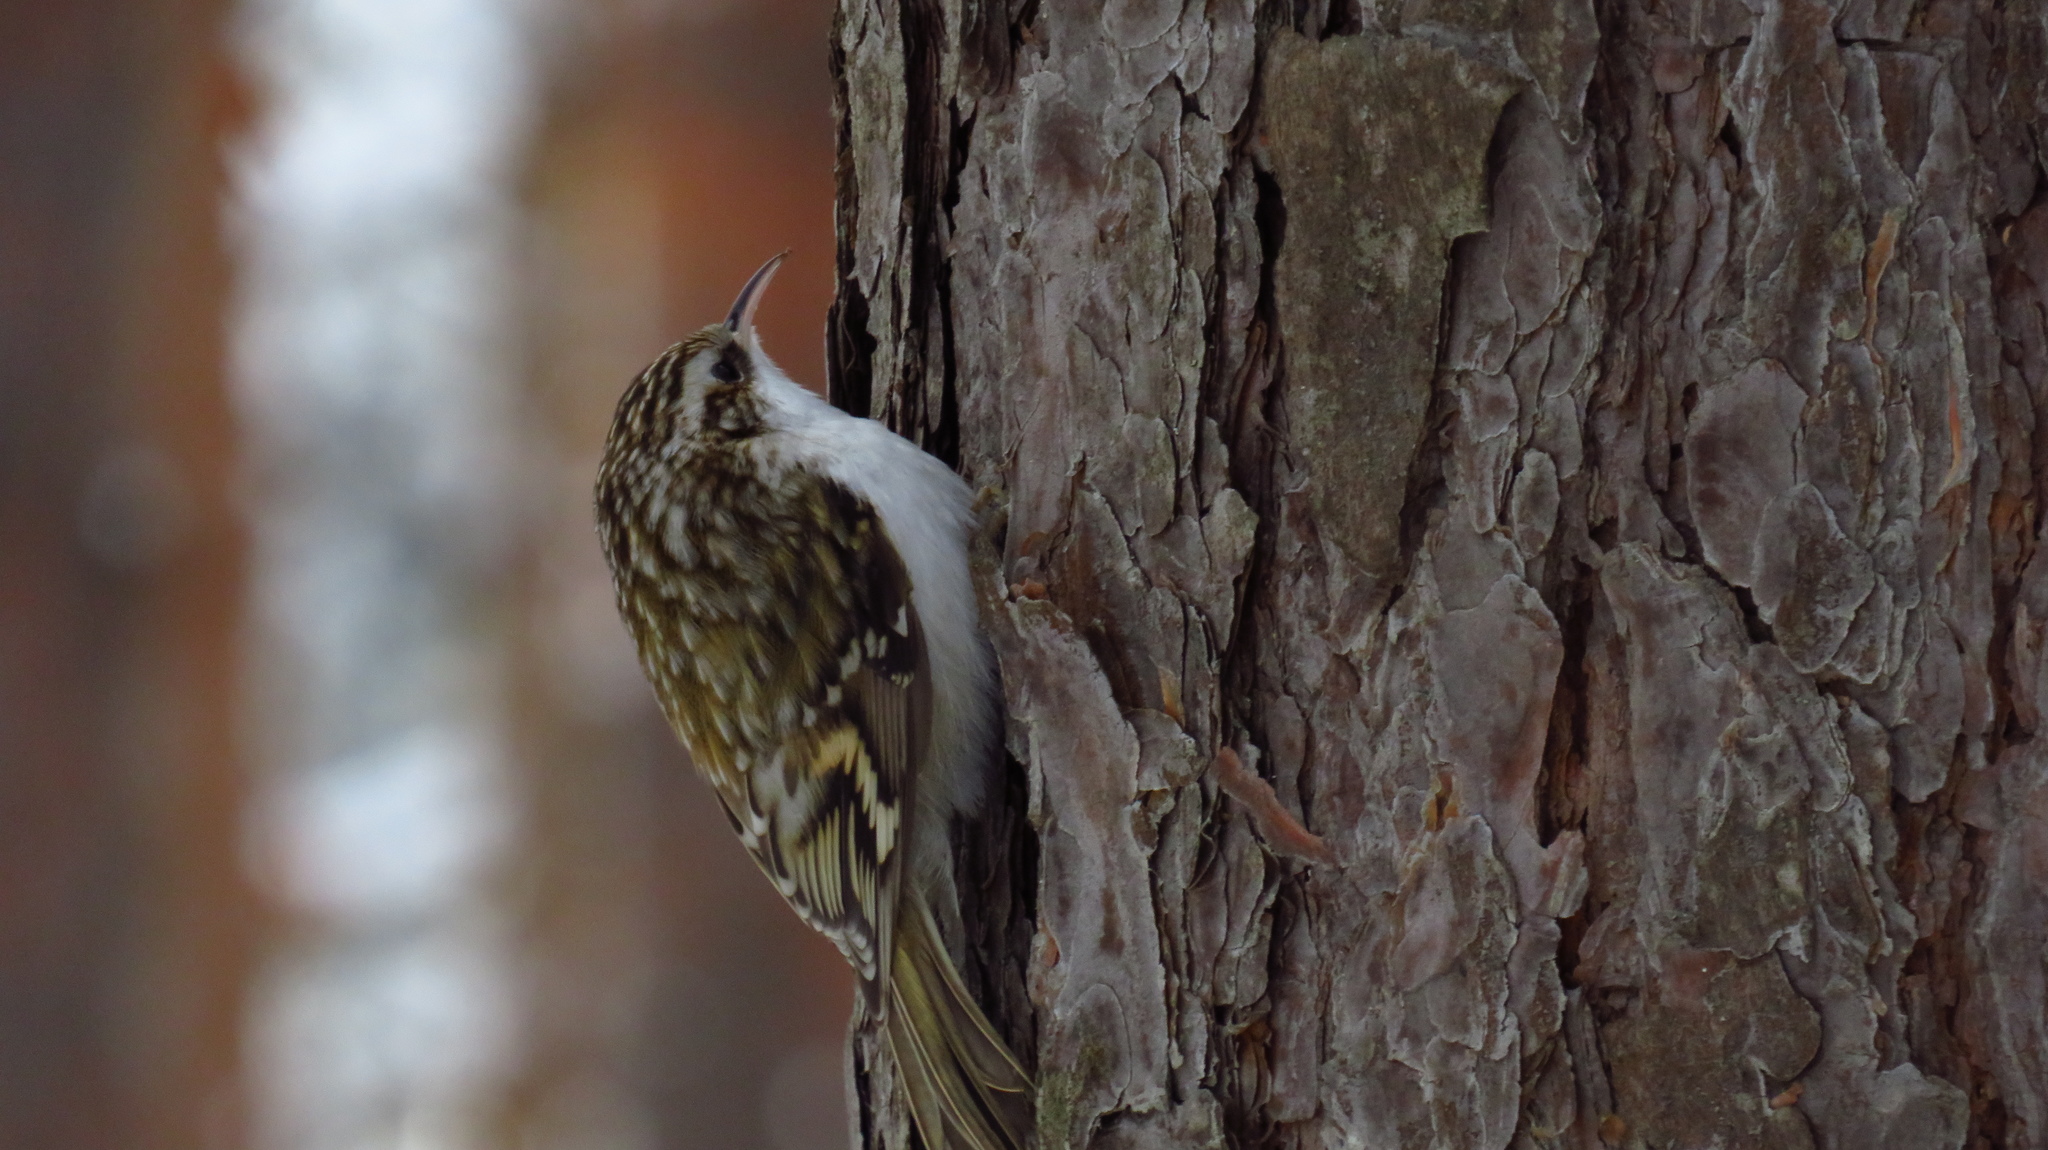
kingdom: Animalia
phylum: Chordata
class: Aves
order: Passeriformes
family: Certhiidae
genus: Certhia
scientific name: Certhia familiaris
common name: Eurasian treecreeper
